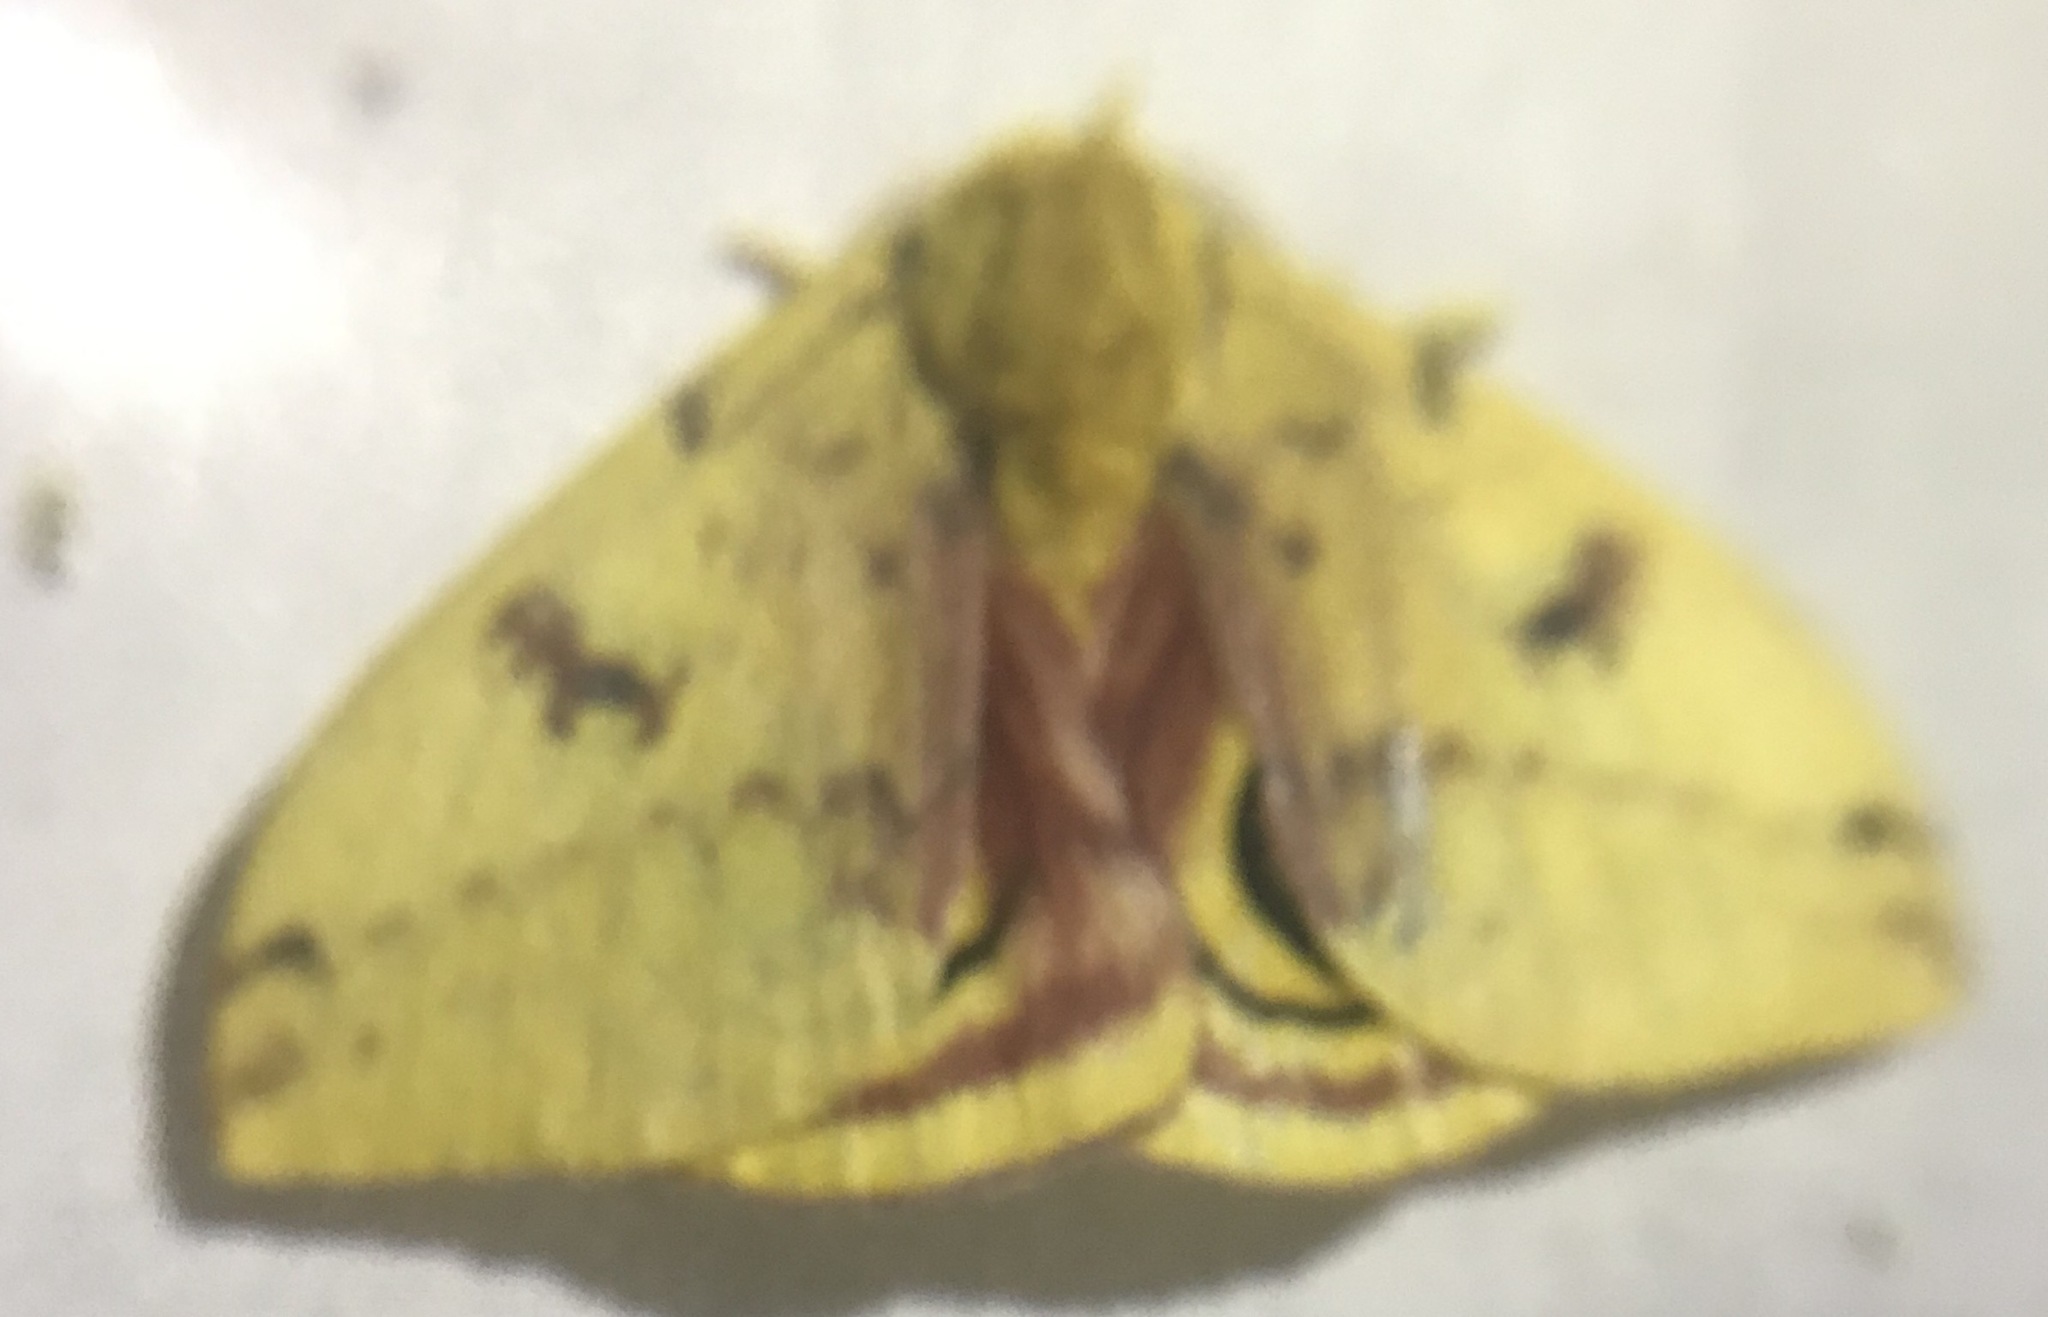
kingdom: Animalia
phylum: Arthropoda
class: Insecta
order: Lepidoptera
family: Saturniidae
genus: Automeris
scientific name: Automeris io
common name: Io moth
